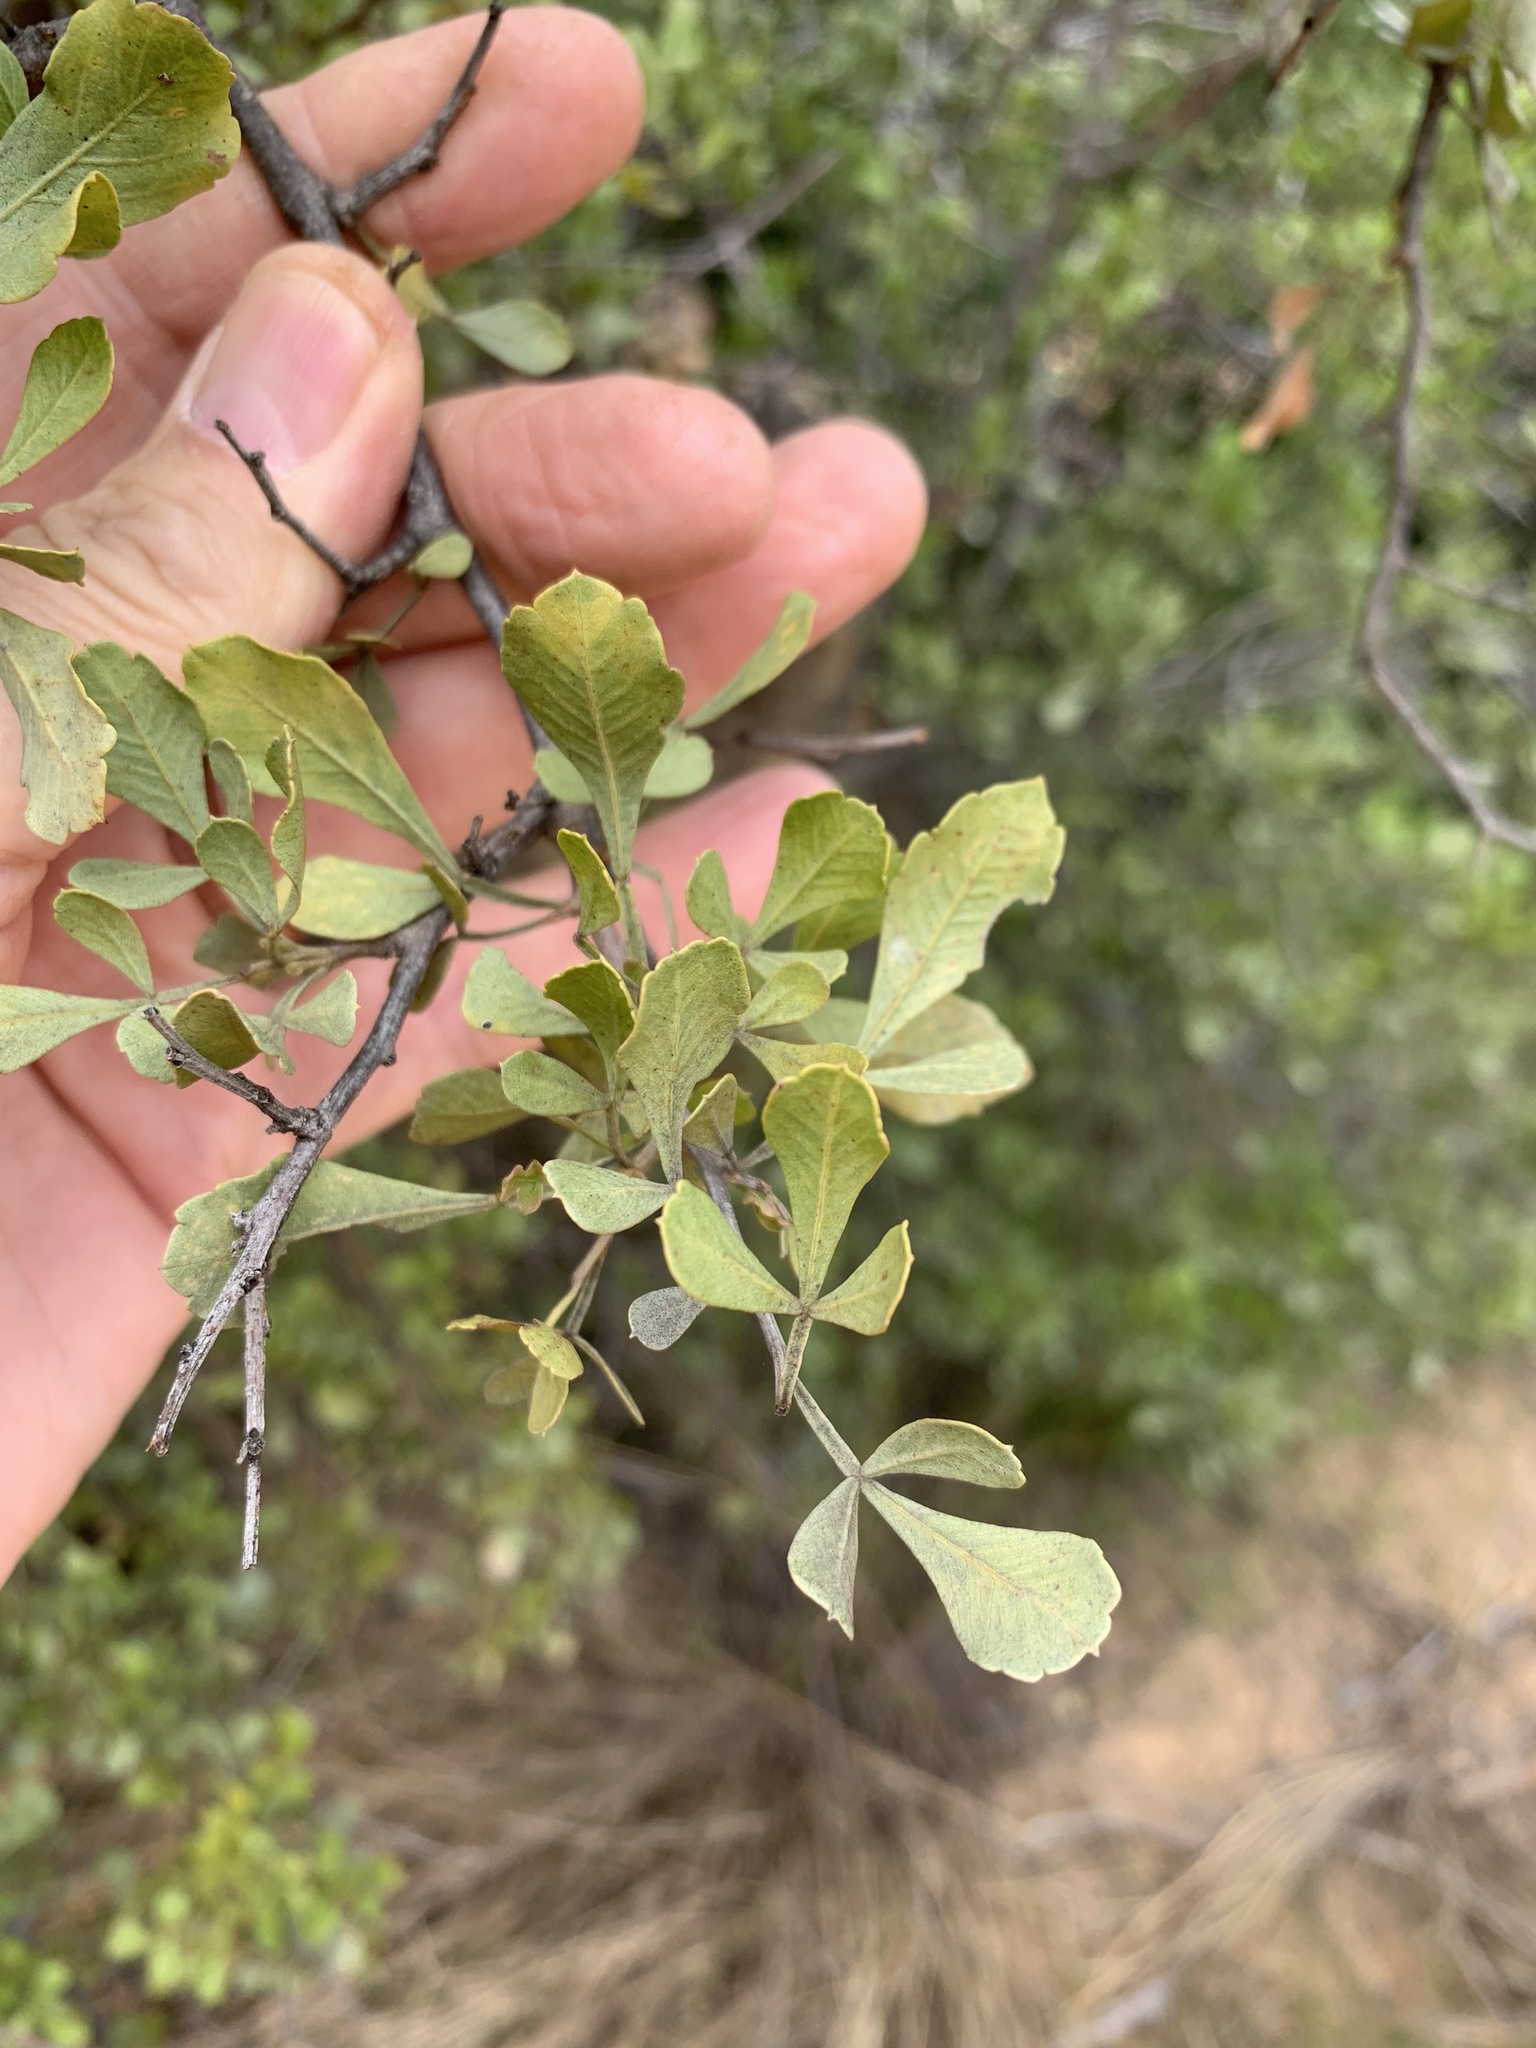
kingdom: Plantae
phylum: Tracheophyta
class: Magnoliopsida
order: Sapindales
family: Anacardiaceae
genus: Searsia
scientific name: Searsia undulata
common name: Namaqua kunibush
